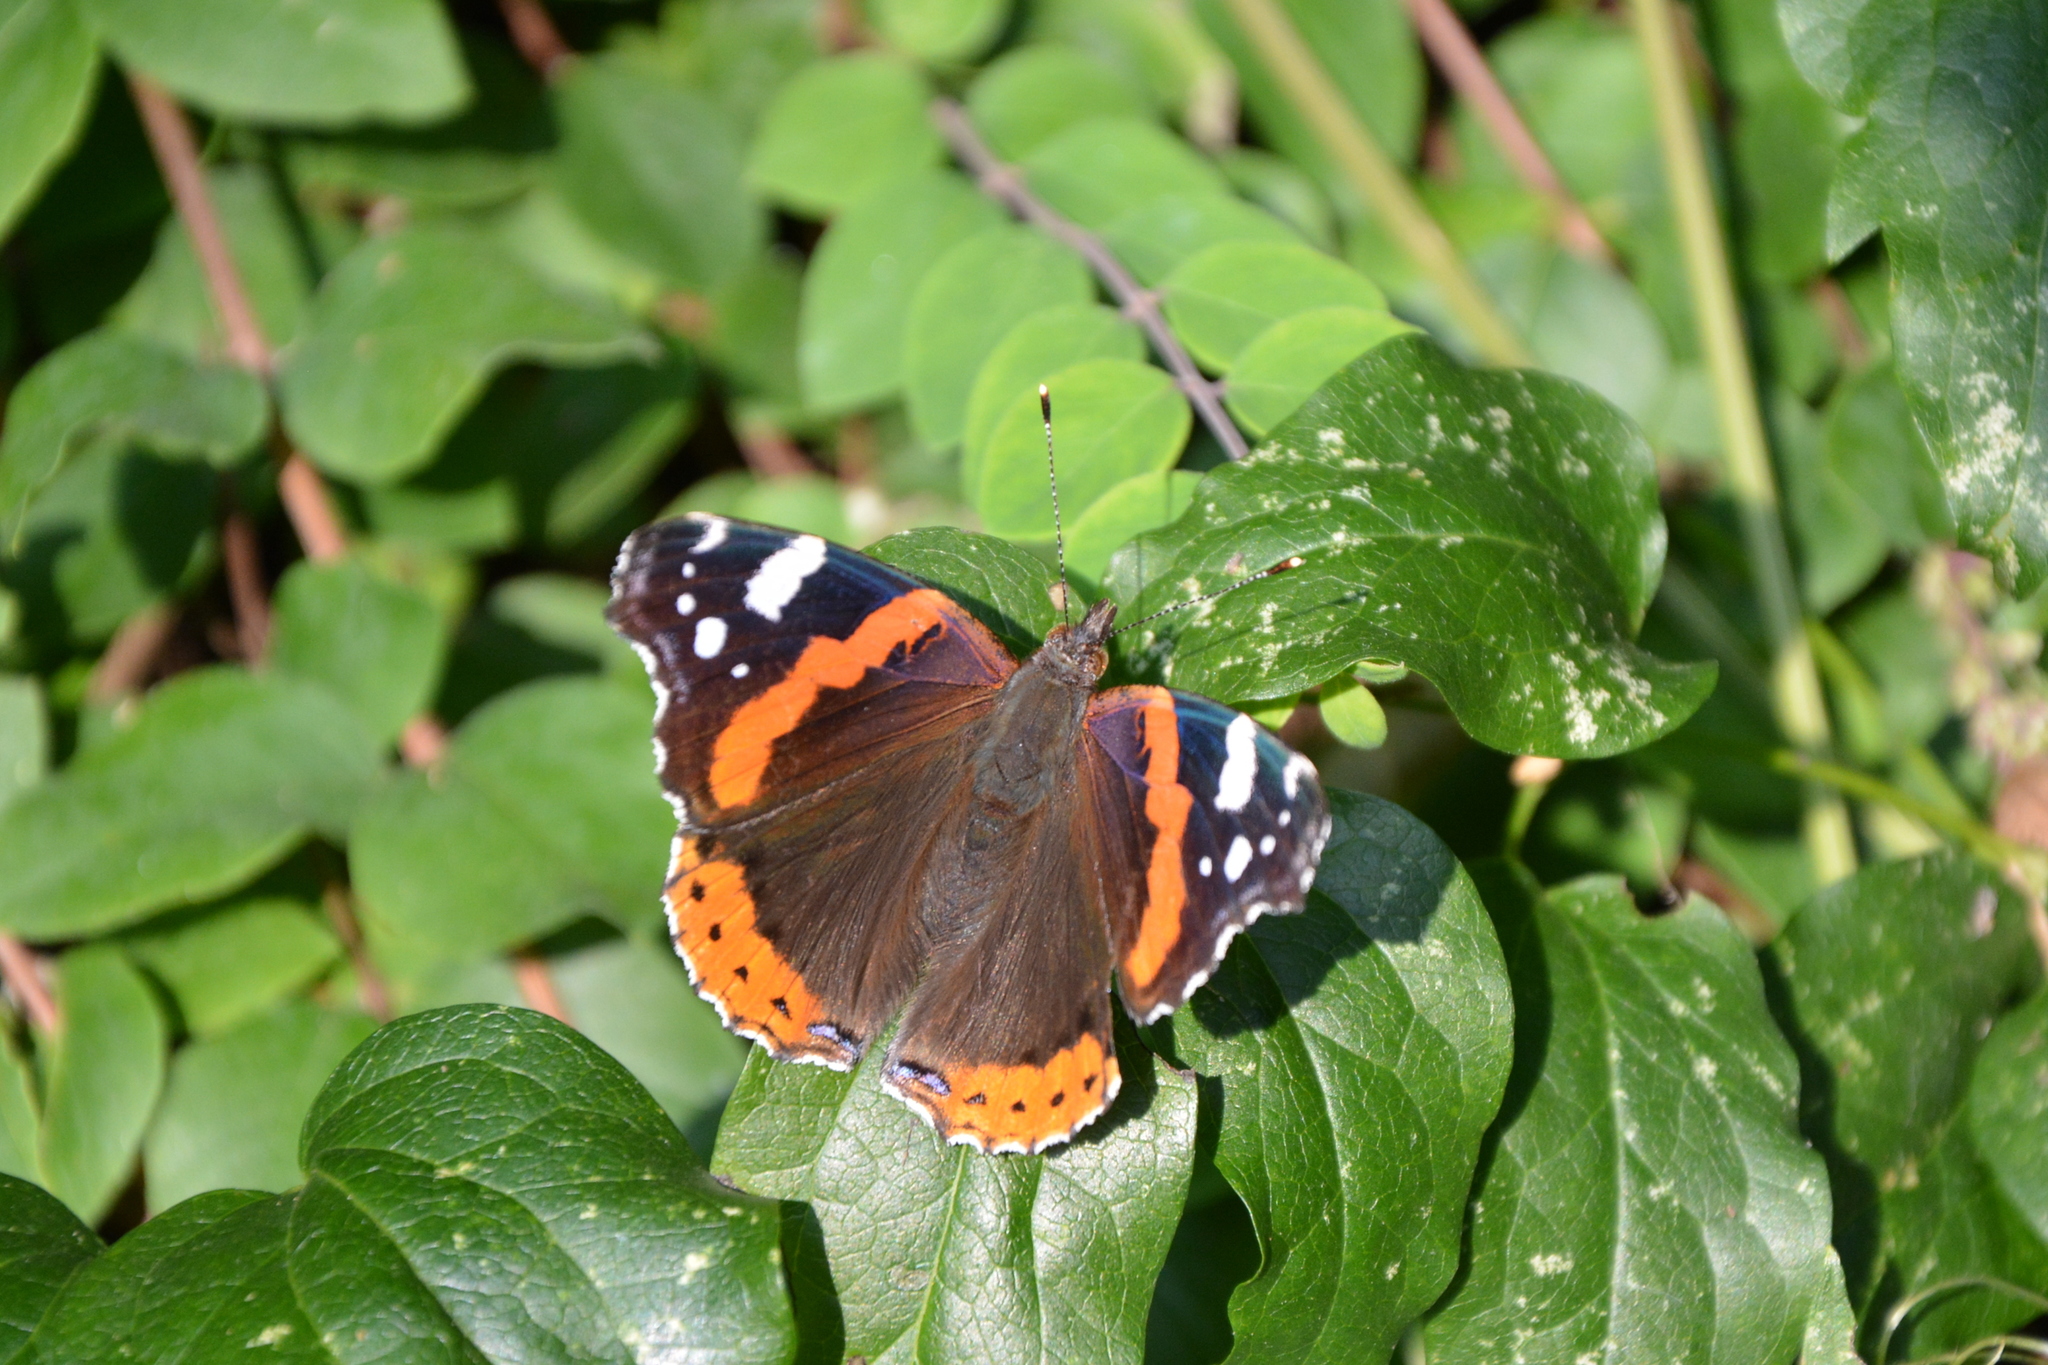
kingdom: Animalia
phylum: Arthropoda
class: Insecta
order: Lepidoptera
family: Nymphalidae
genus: Vanessa
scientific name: Vanessa atalanta
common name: Red admiral
